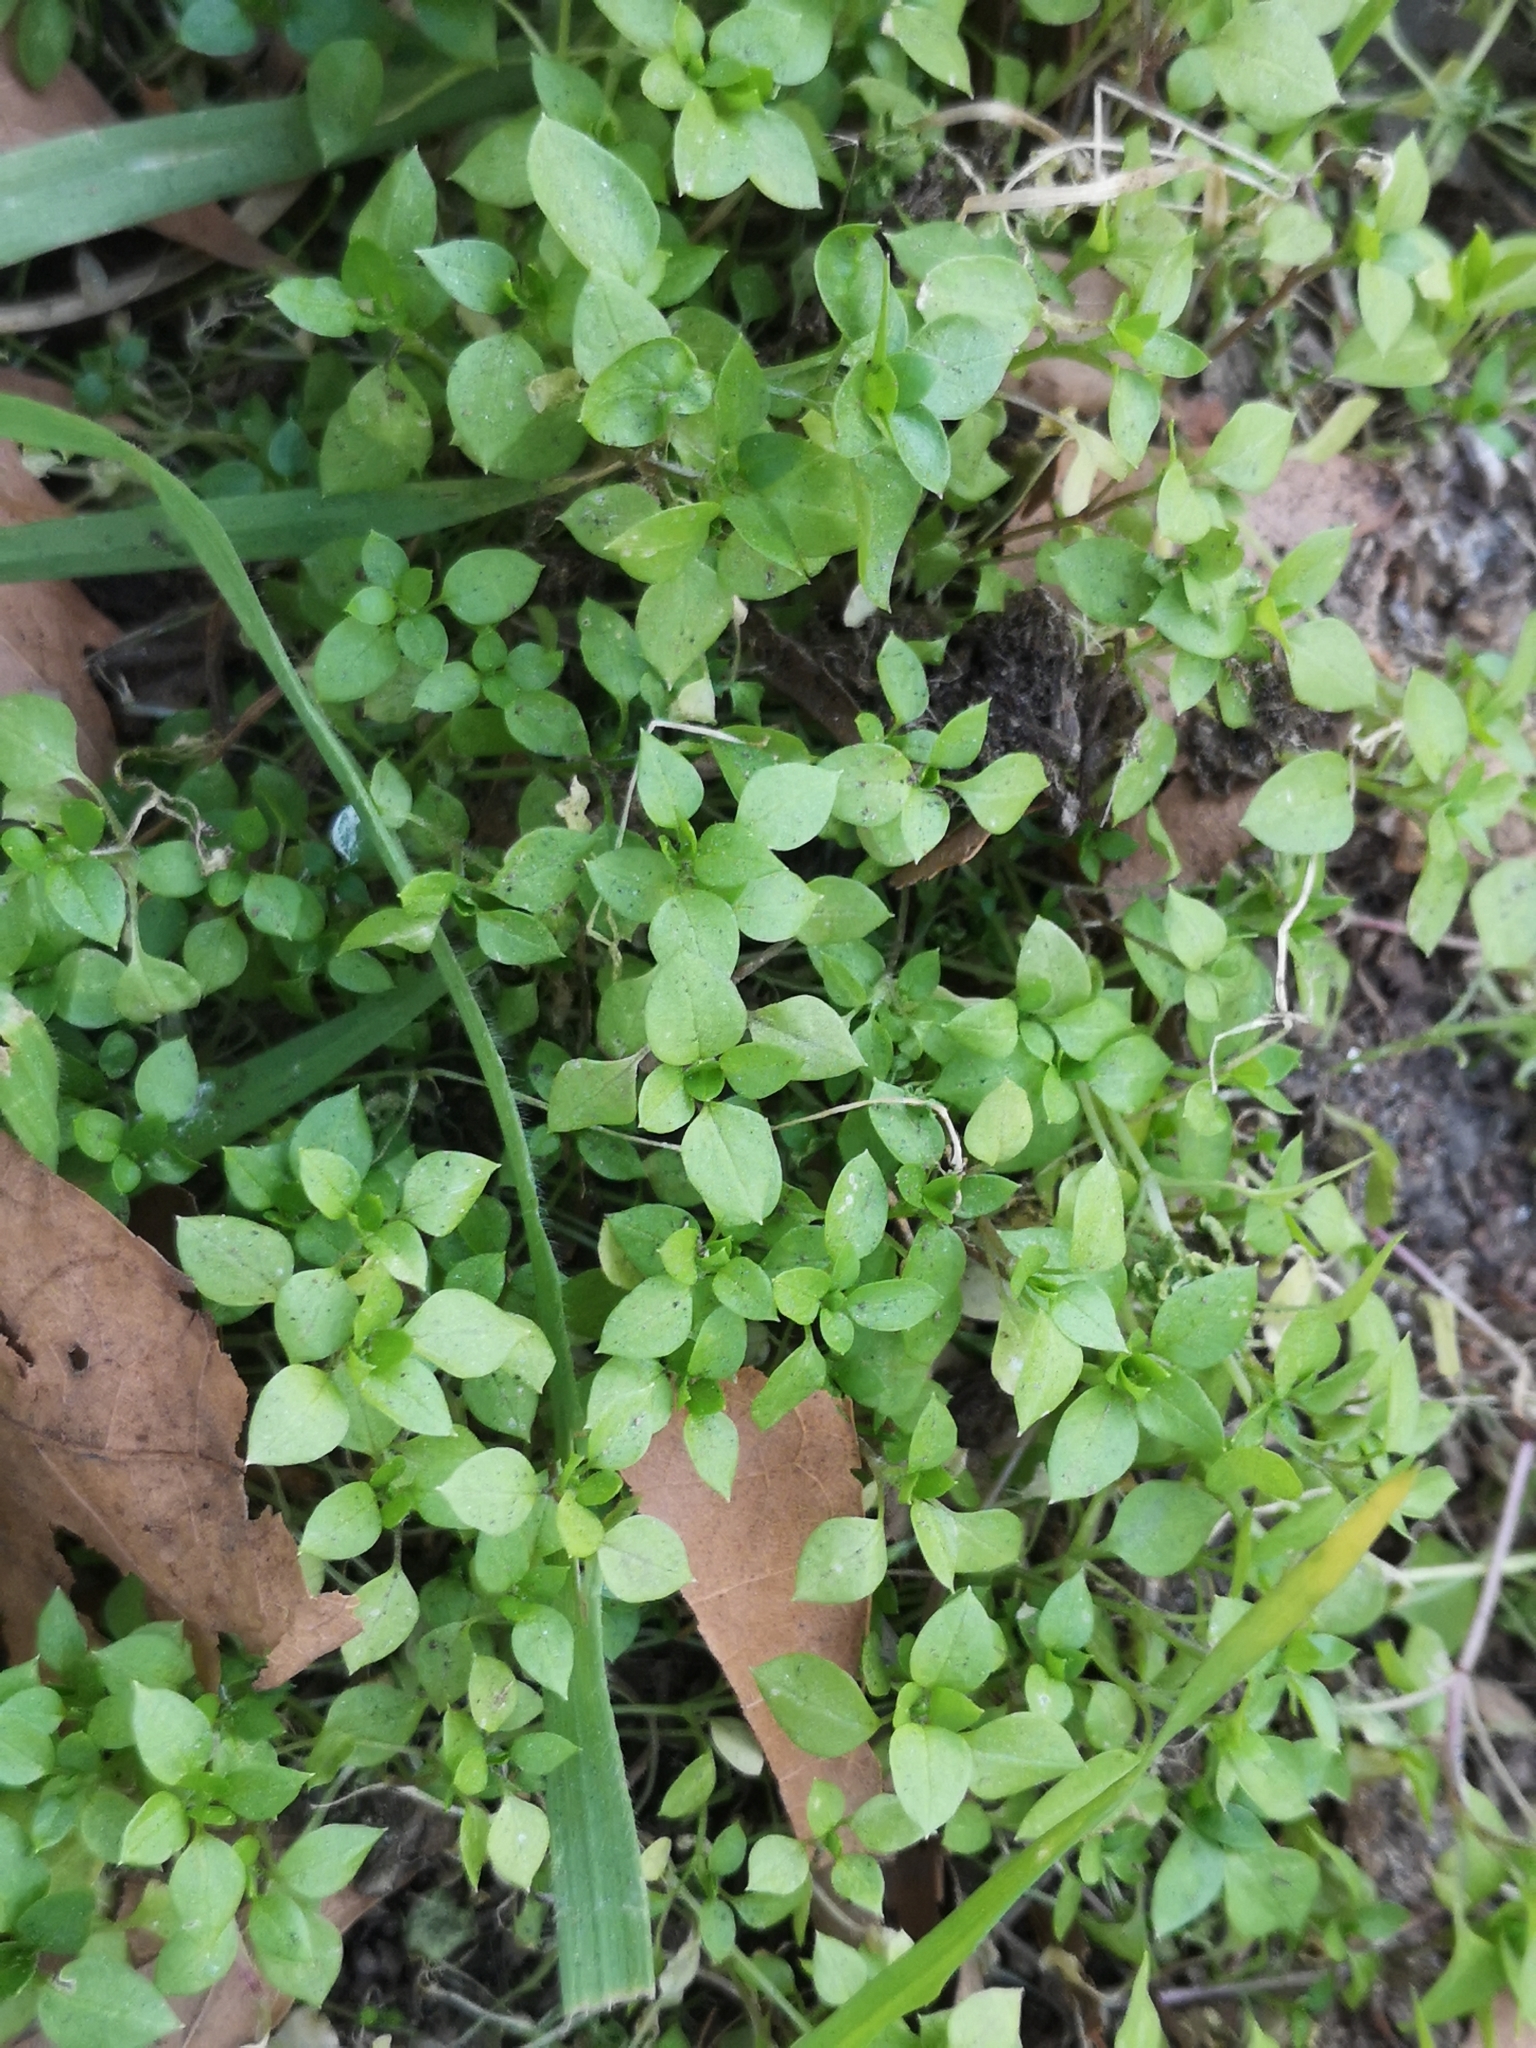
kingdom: Plantae
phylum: Tracheophyta
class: Magnoliopsida
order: Caryophyllales
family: Caryophyllaceae
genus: Stellaria
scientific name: Stellaria media
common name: Common chickweed
